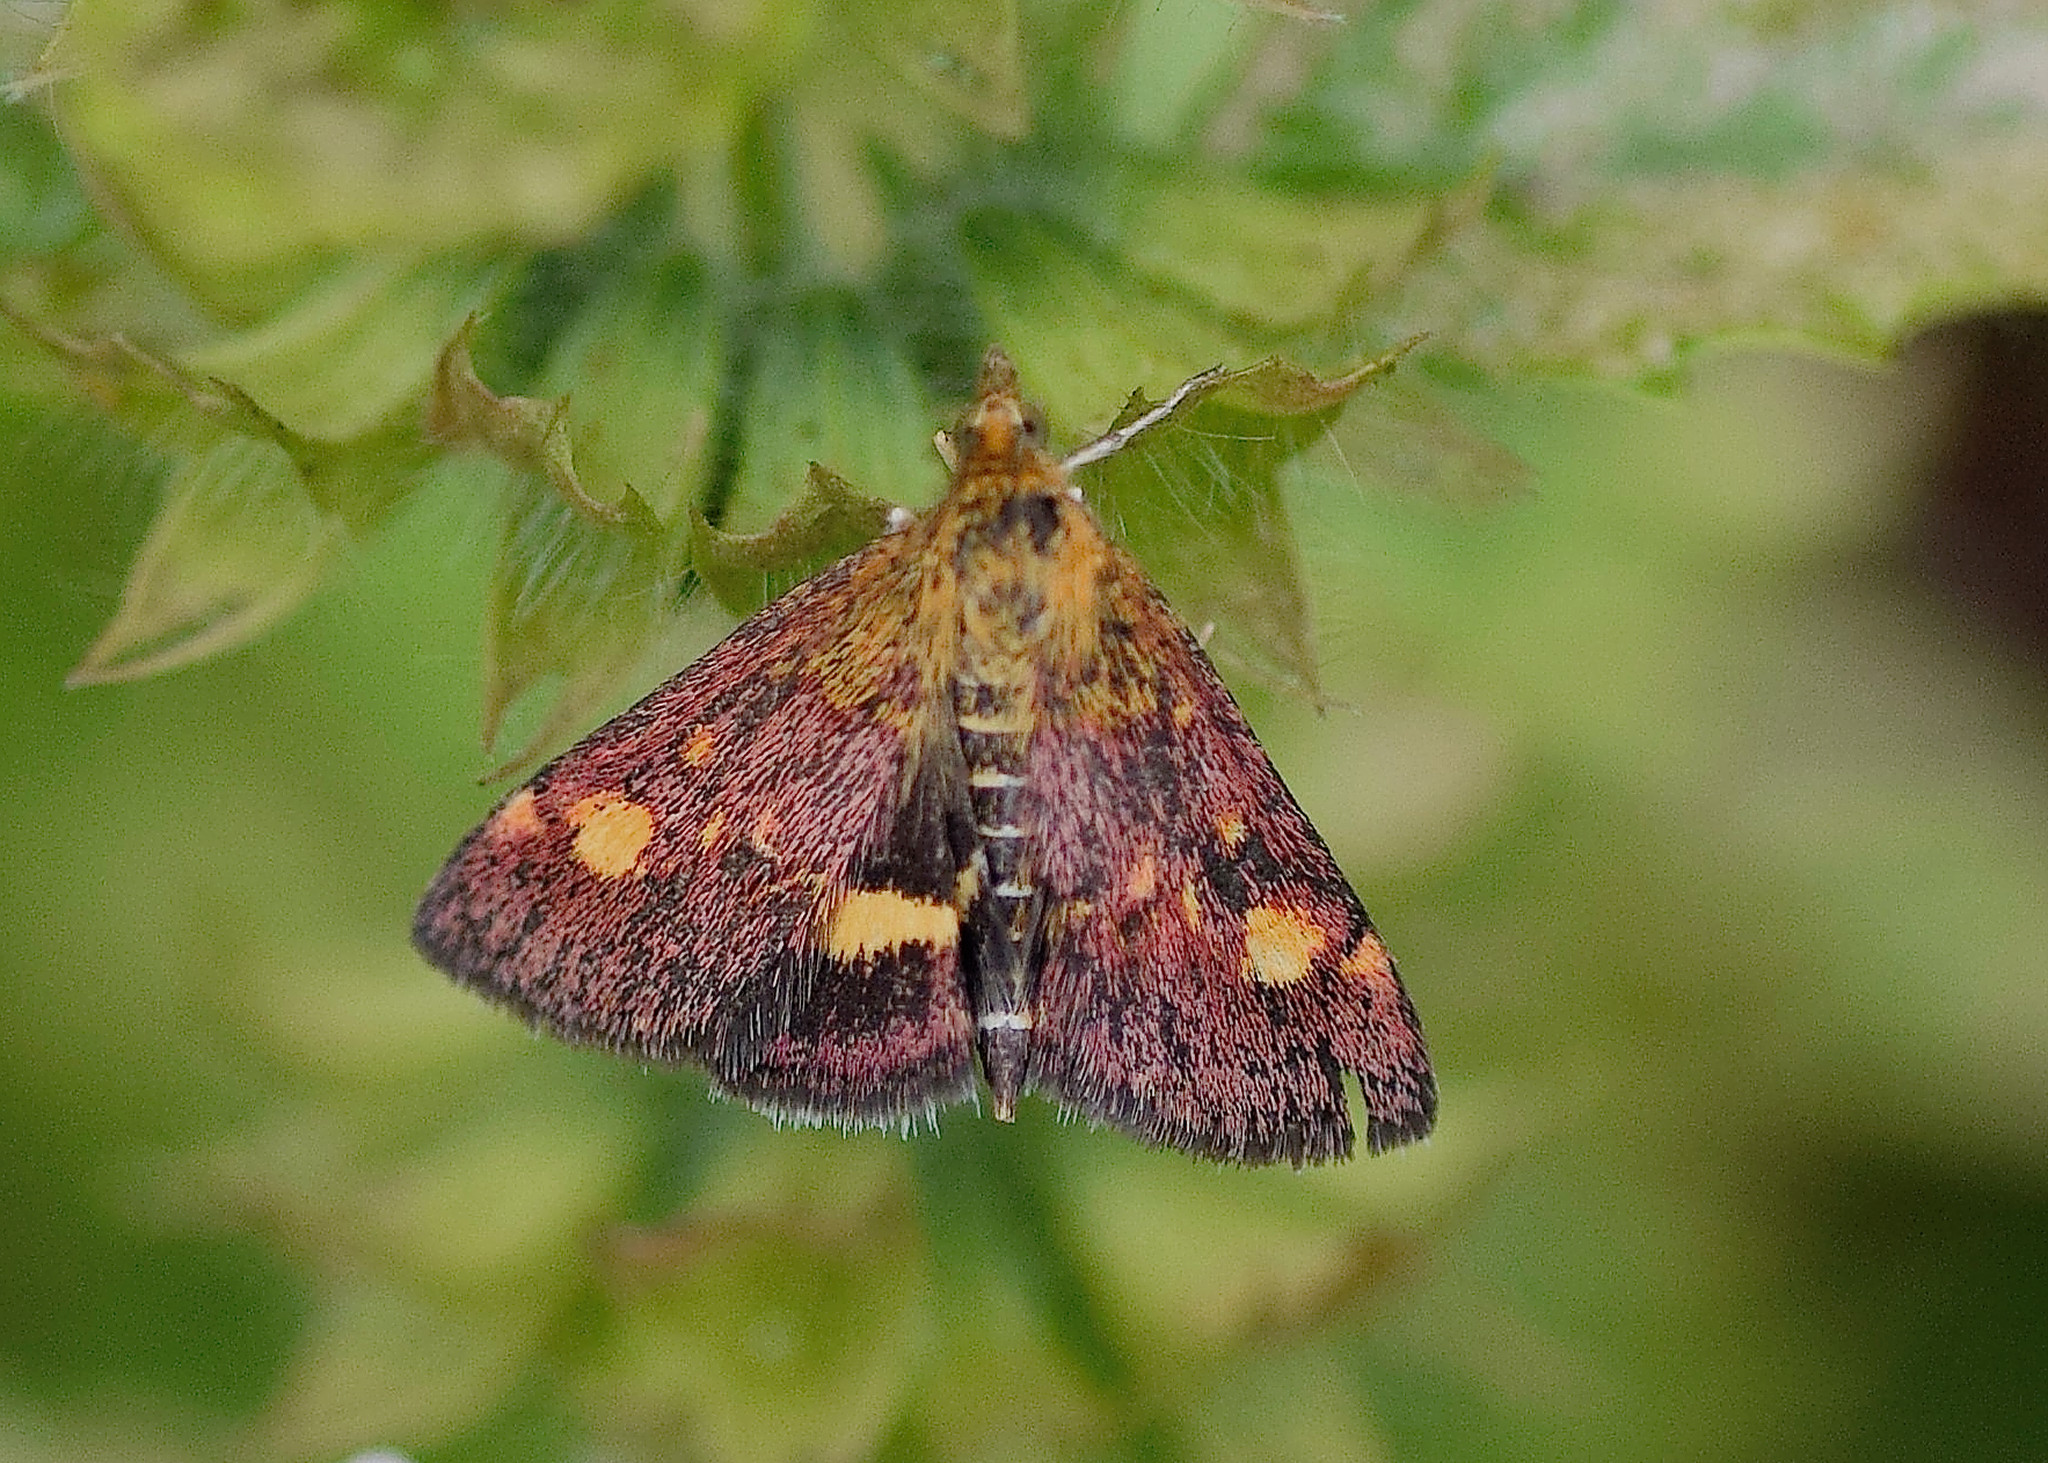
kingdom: Animalia
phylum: Arthropoda
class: Insecta
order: Lepidoptera
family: Crambidae
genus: Pyrausta
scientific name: Pyrausta aurata
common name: Small purple & gold
